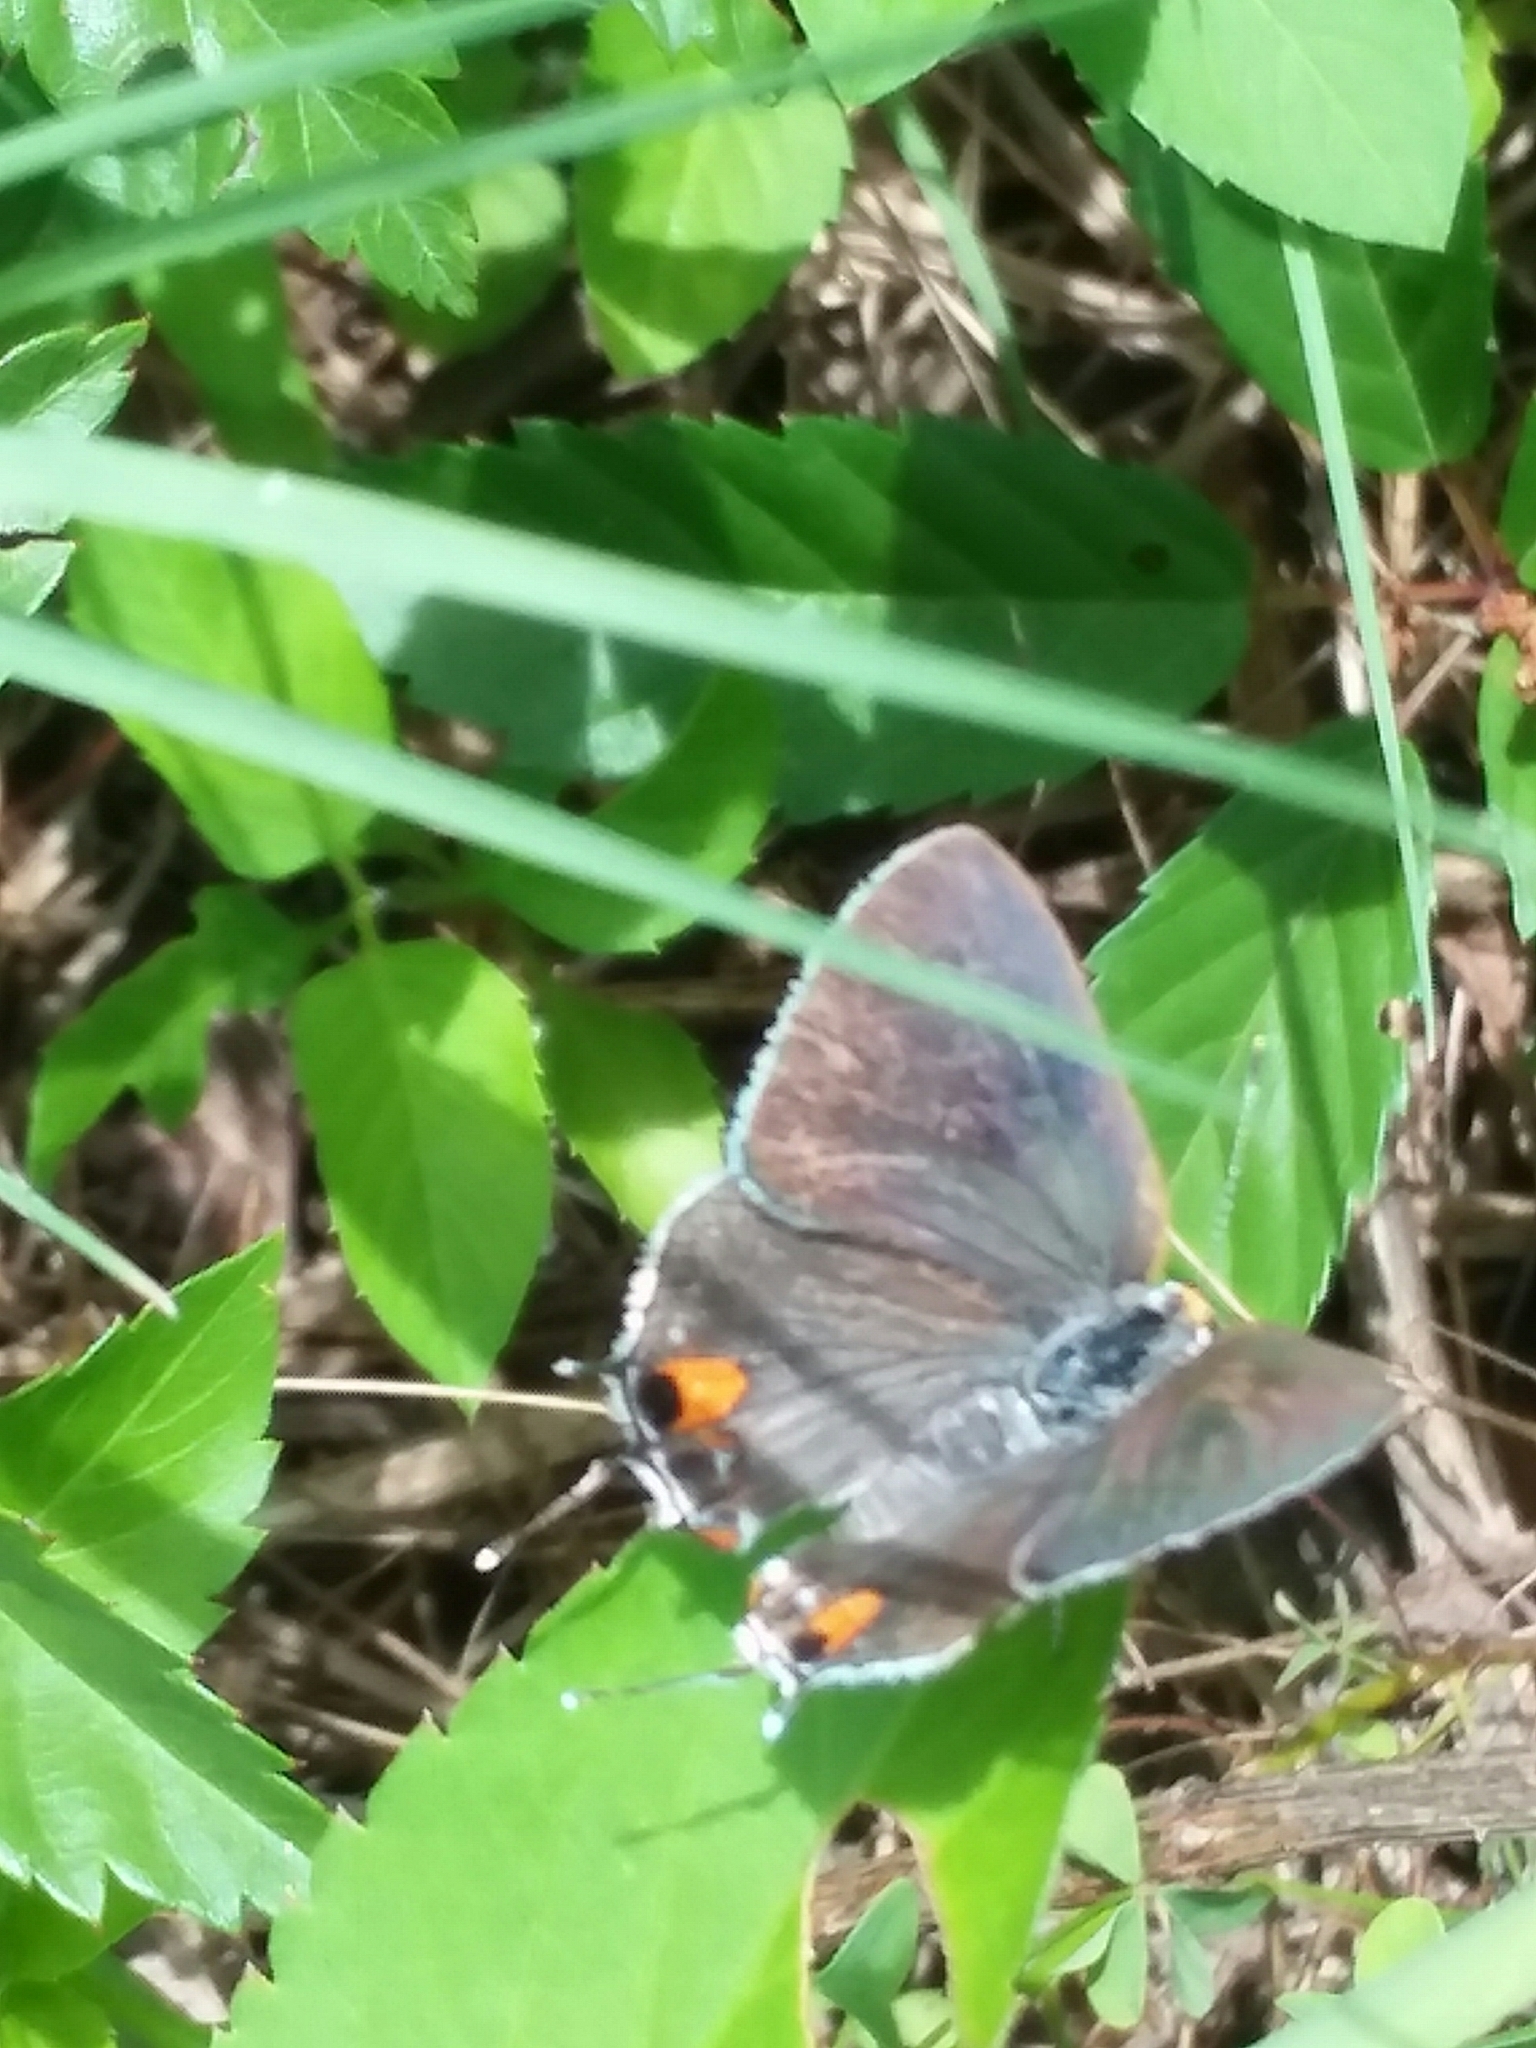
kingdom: Animalia
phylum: Arthropoda
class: Insecta
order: Lepidoptera
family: Lycaenidae
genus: Strymon
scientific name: Strymon melinus
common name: Gray hairstreak
